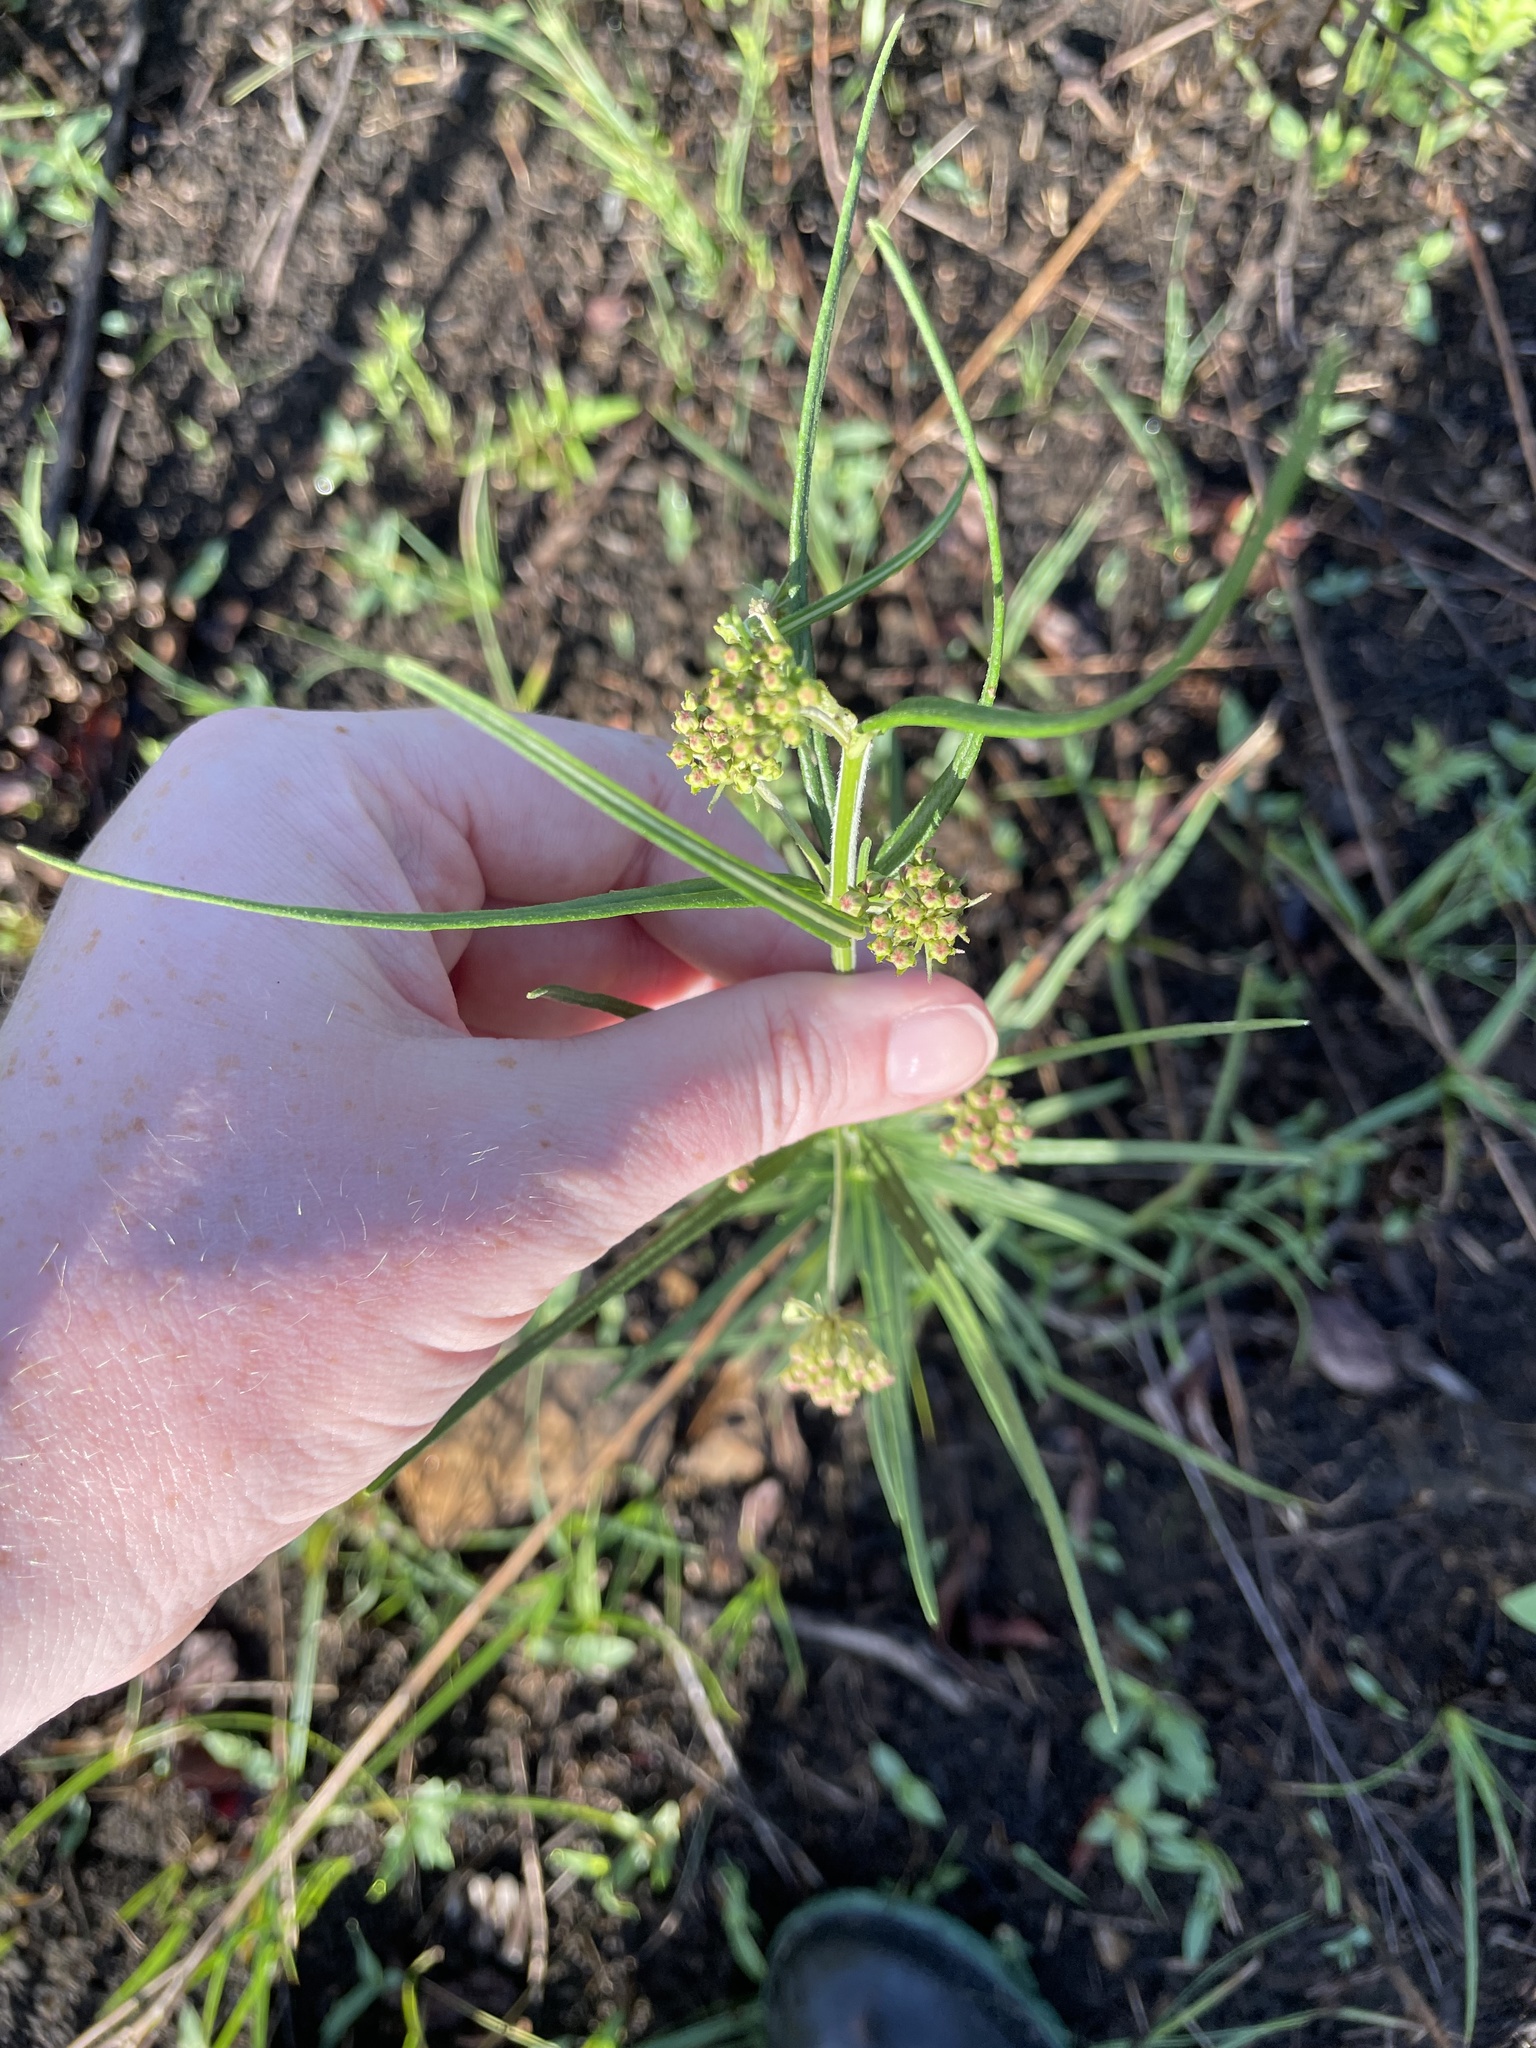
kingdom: Plantae
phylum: Tracheophyta
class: Magnoliopsida
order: Gentianales
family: Apocynaceae
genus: Asclepias
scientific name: Asclepias verticillata
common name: Eastern whorled milkweed
